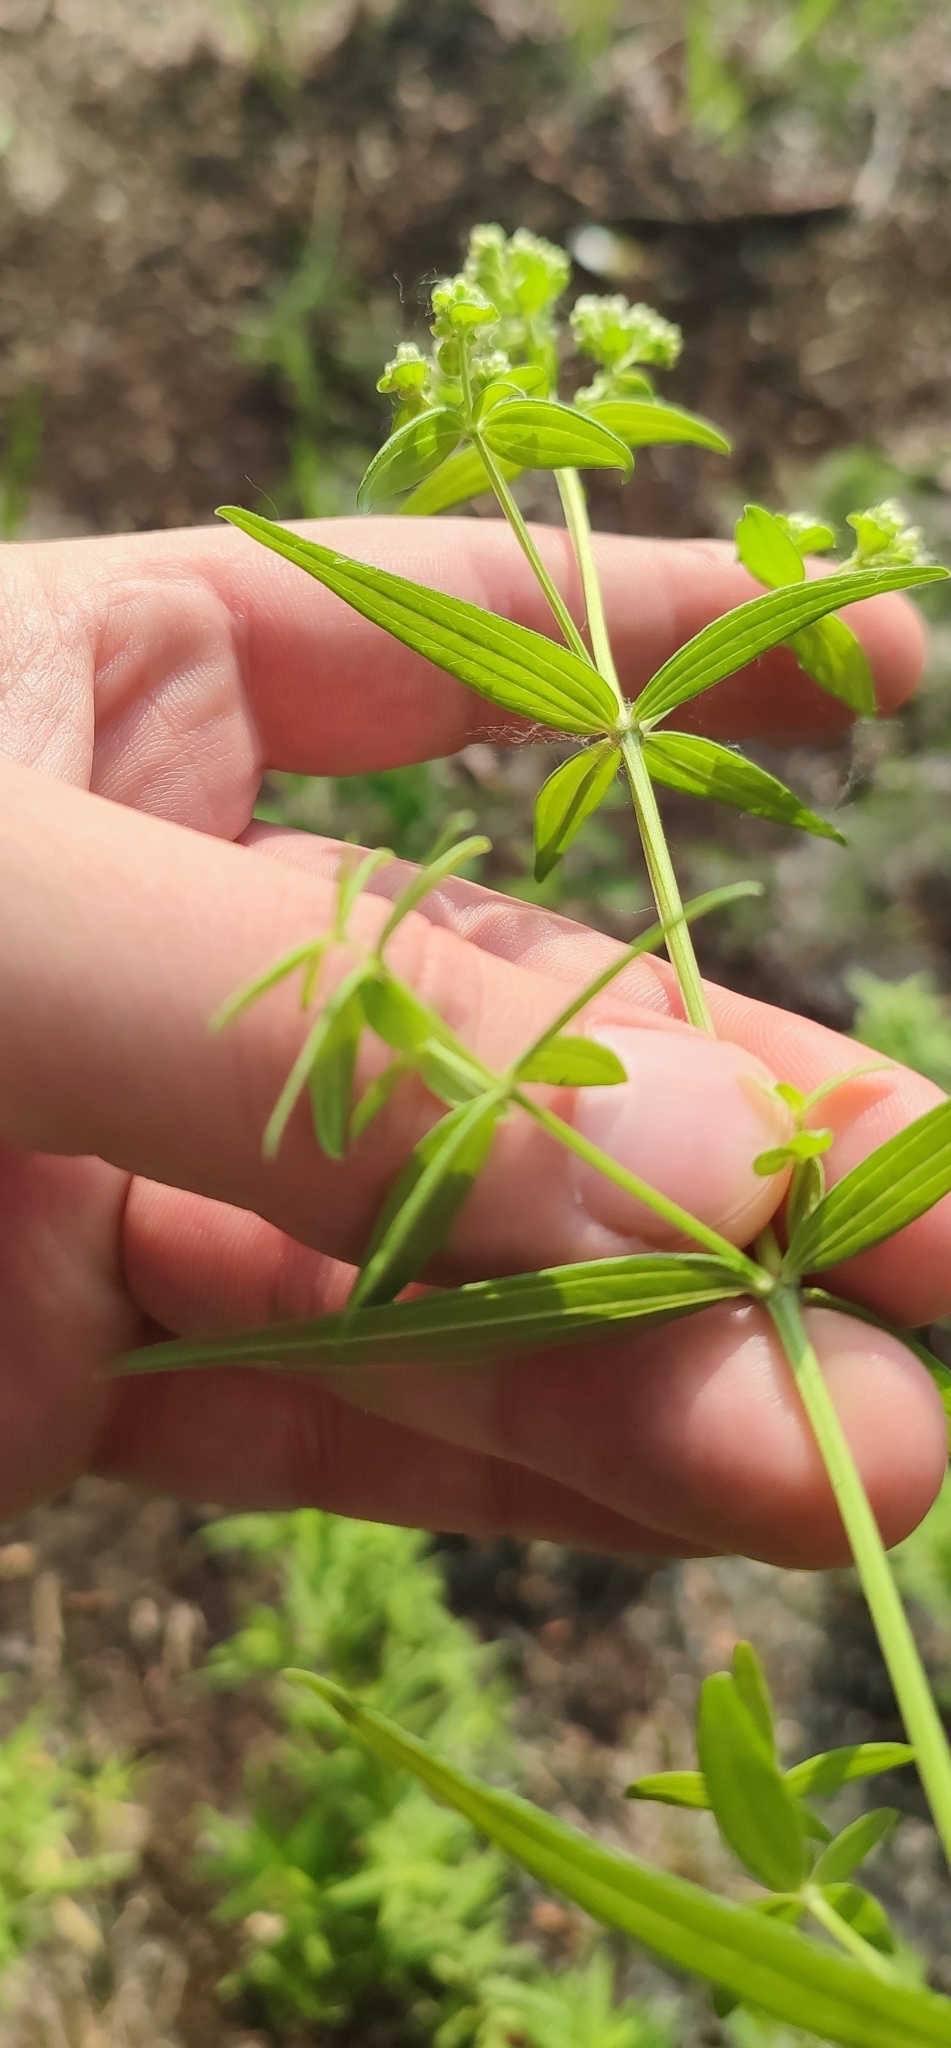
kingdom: Plantae
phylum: Tracheophyta
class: Magnoliopsida
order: Gentianales
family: Rubiaceae
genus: Galium
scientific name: Galium rubioides
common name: European bedstraw
